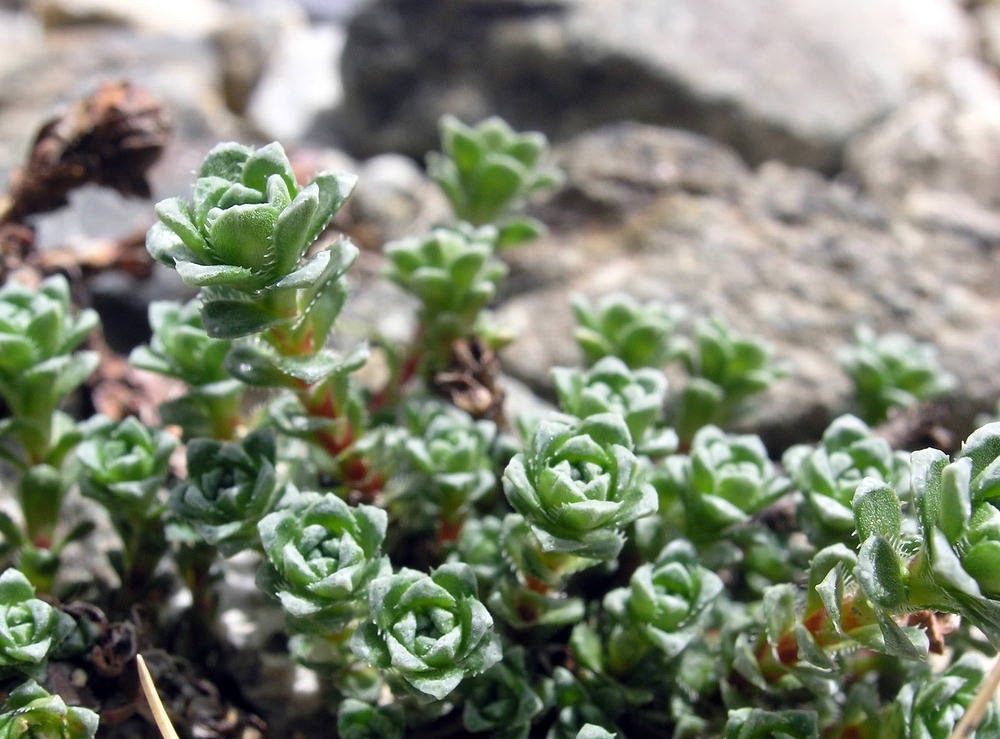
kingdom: Plantae
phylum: Tracheophyta
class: Magnoliopsida
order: Saxifragales
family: Saxifragaceae
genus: Saxifraga
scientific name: Saxifraga oppositifolia
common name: Purple saxifrage
